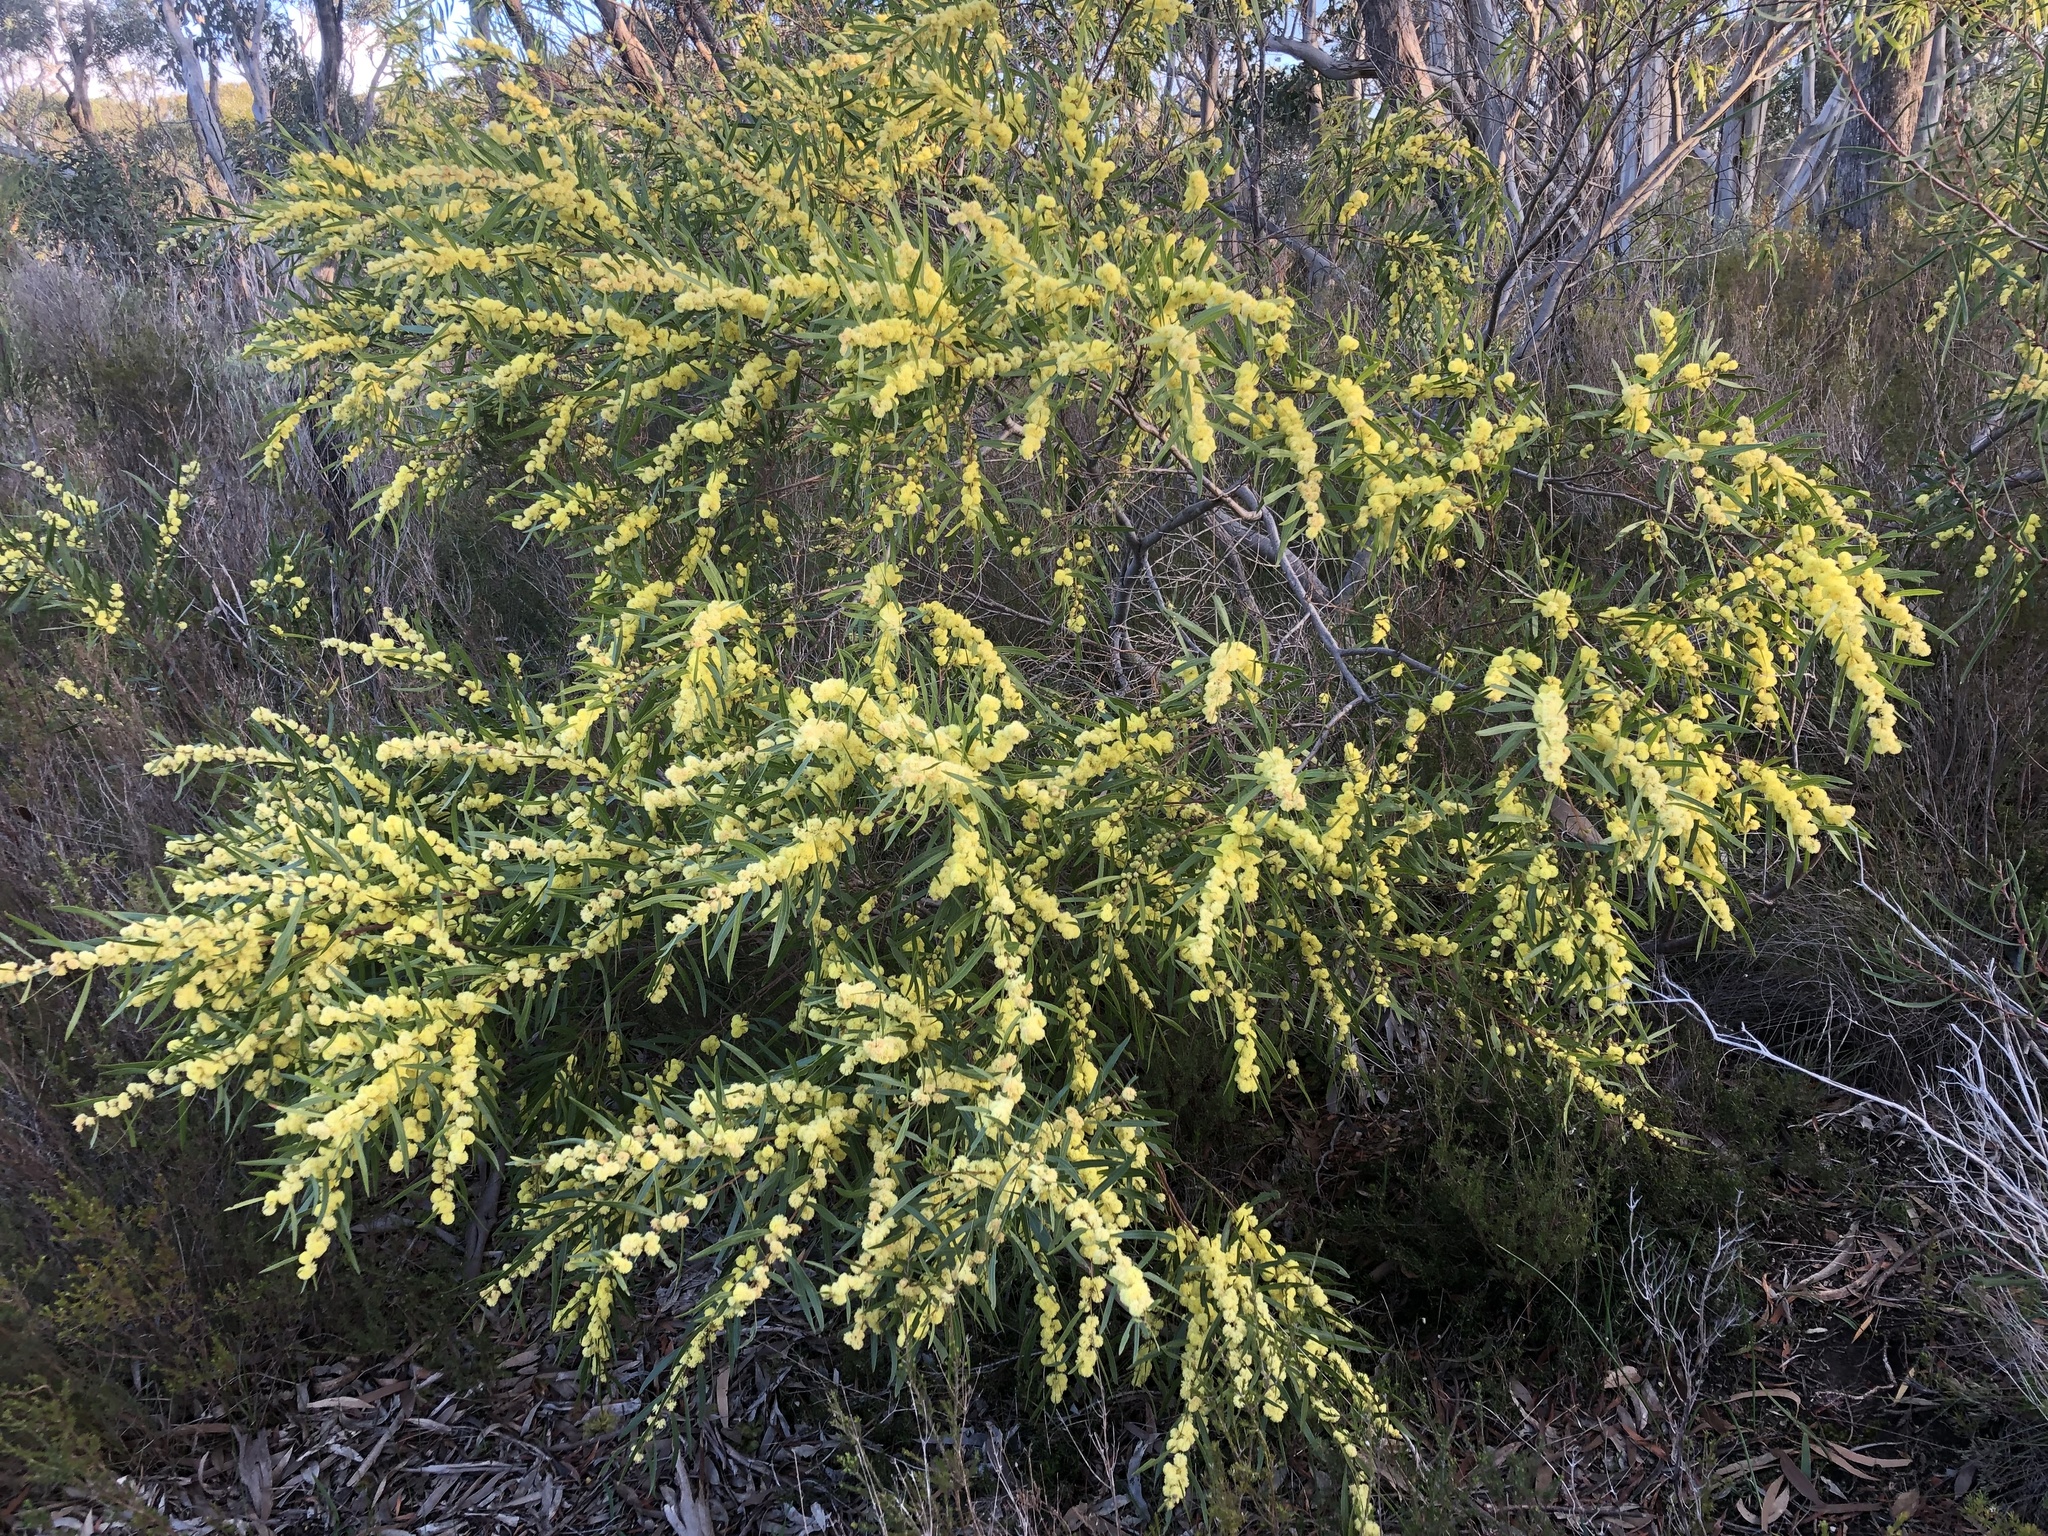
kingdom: Plantae
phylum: Tracheophyta
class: Magnoliopsida
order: Fabales
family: Fabaceae
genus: Acacia
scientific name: Acacia verniciflua
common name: Varnish wattle
